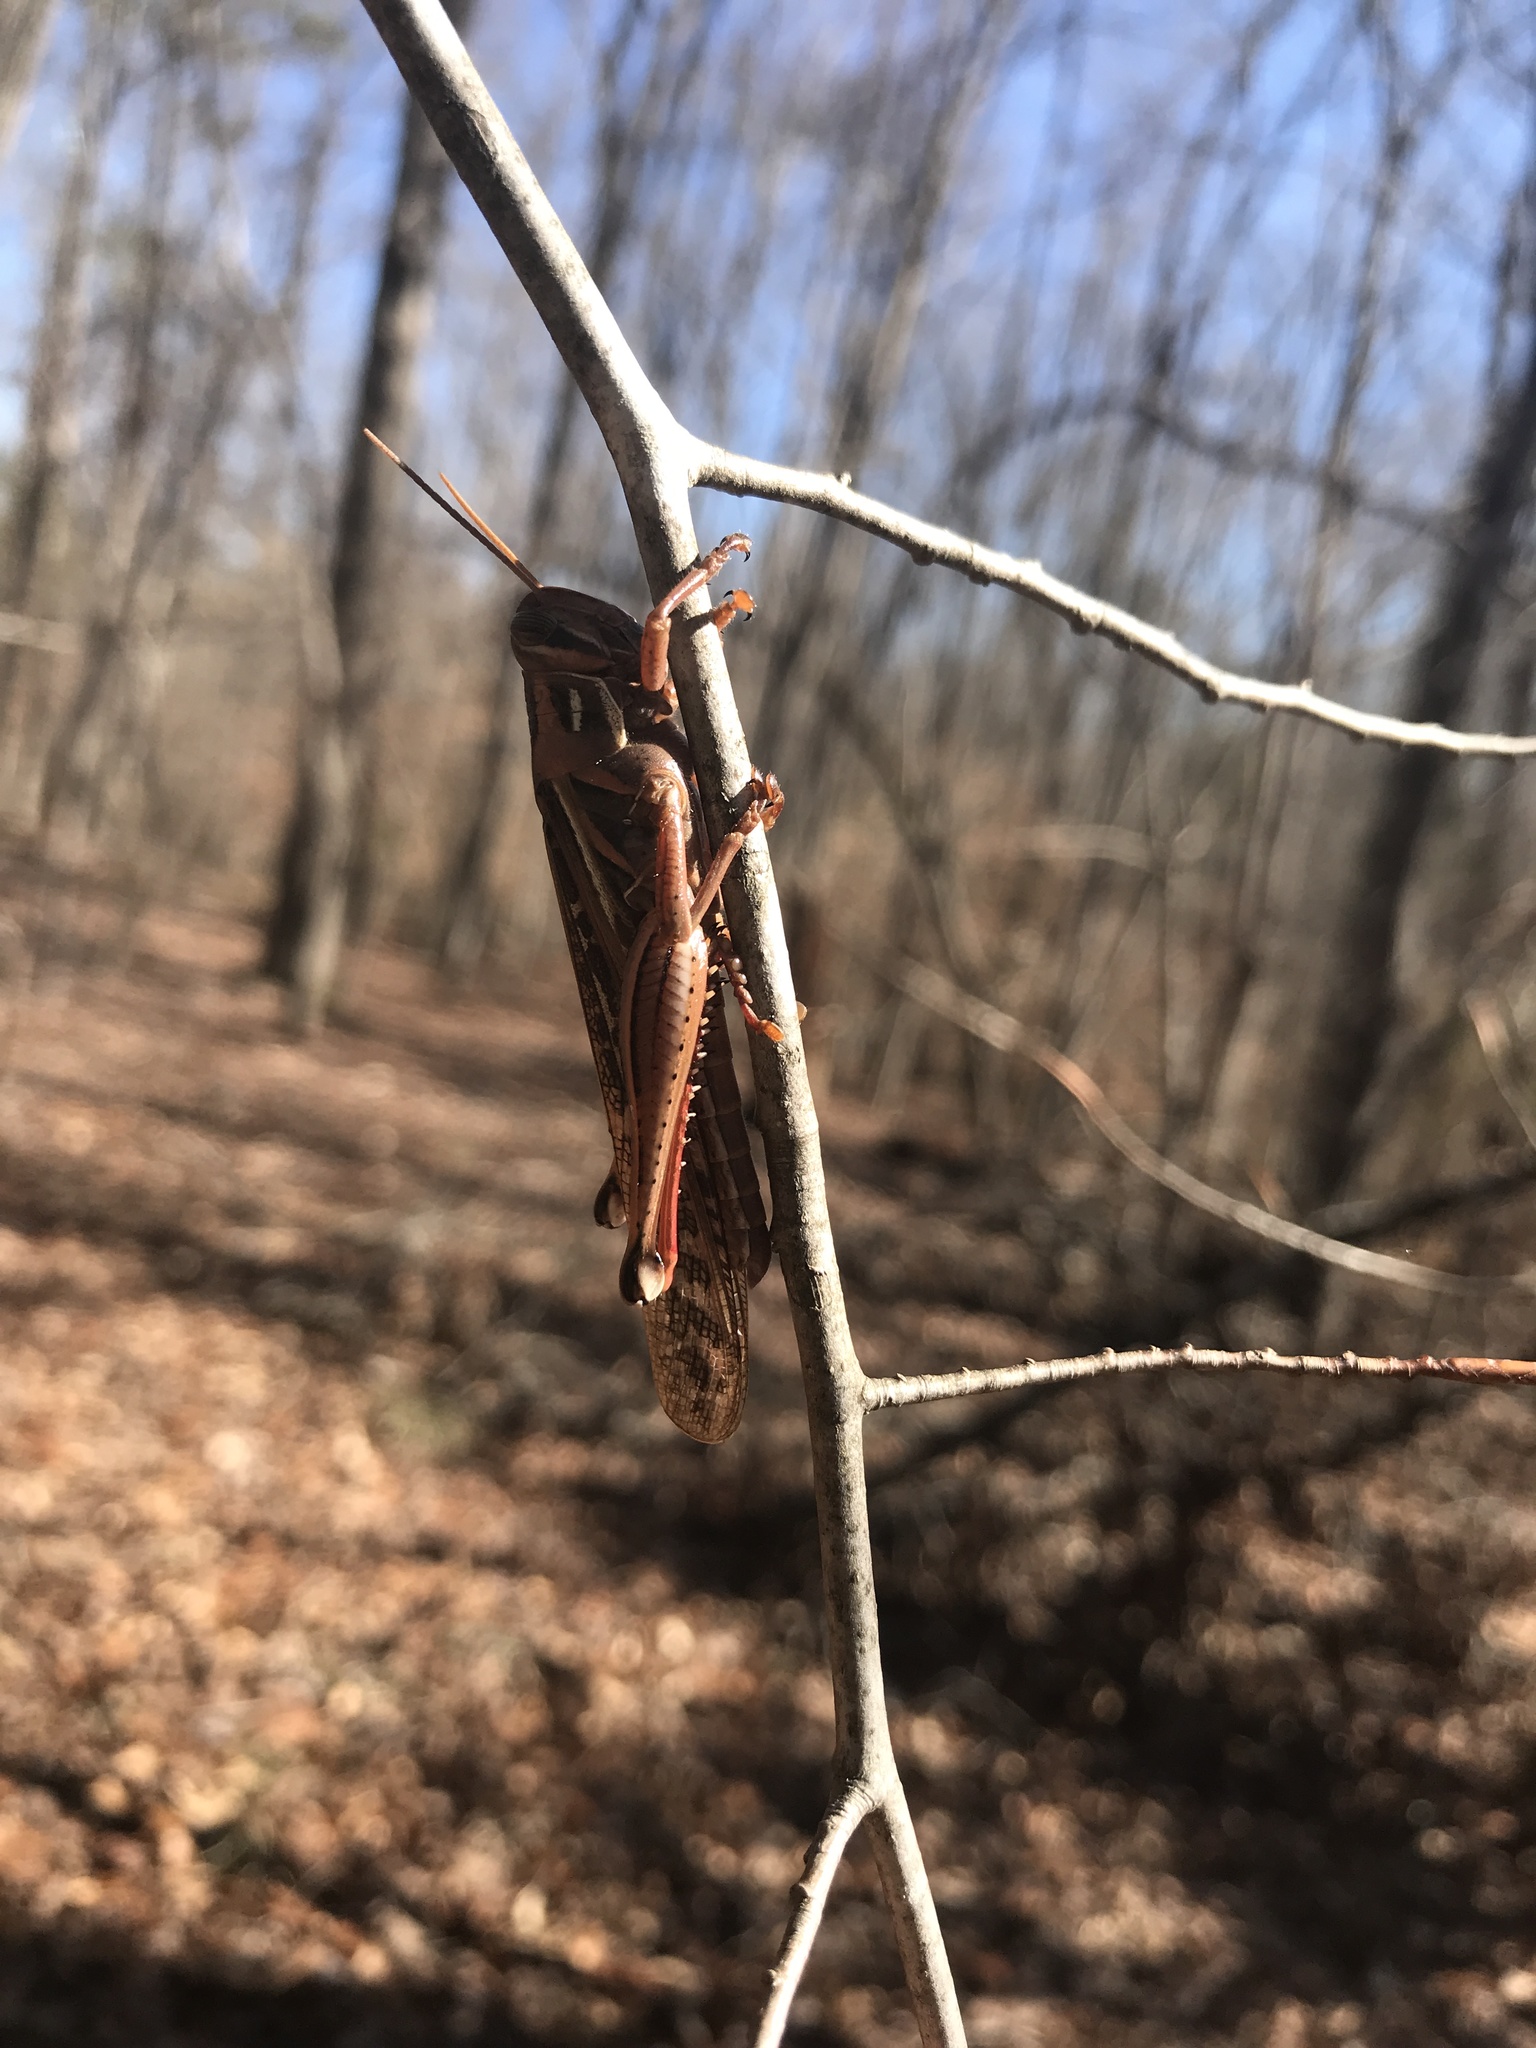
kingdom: Animalia
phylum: Arthropoda
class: Insecta
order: Orthoptera
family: Acrididae
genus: Schistocerca
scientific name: Schistocerca americana
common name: American bird locust
